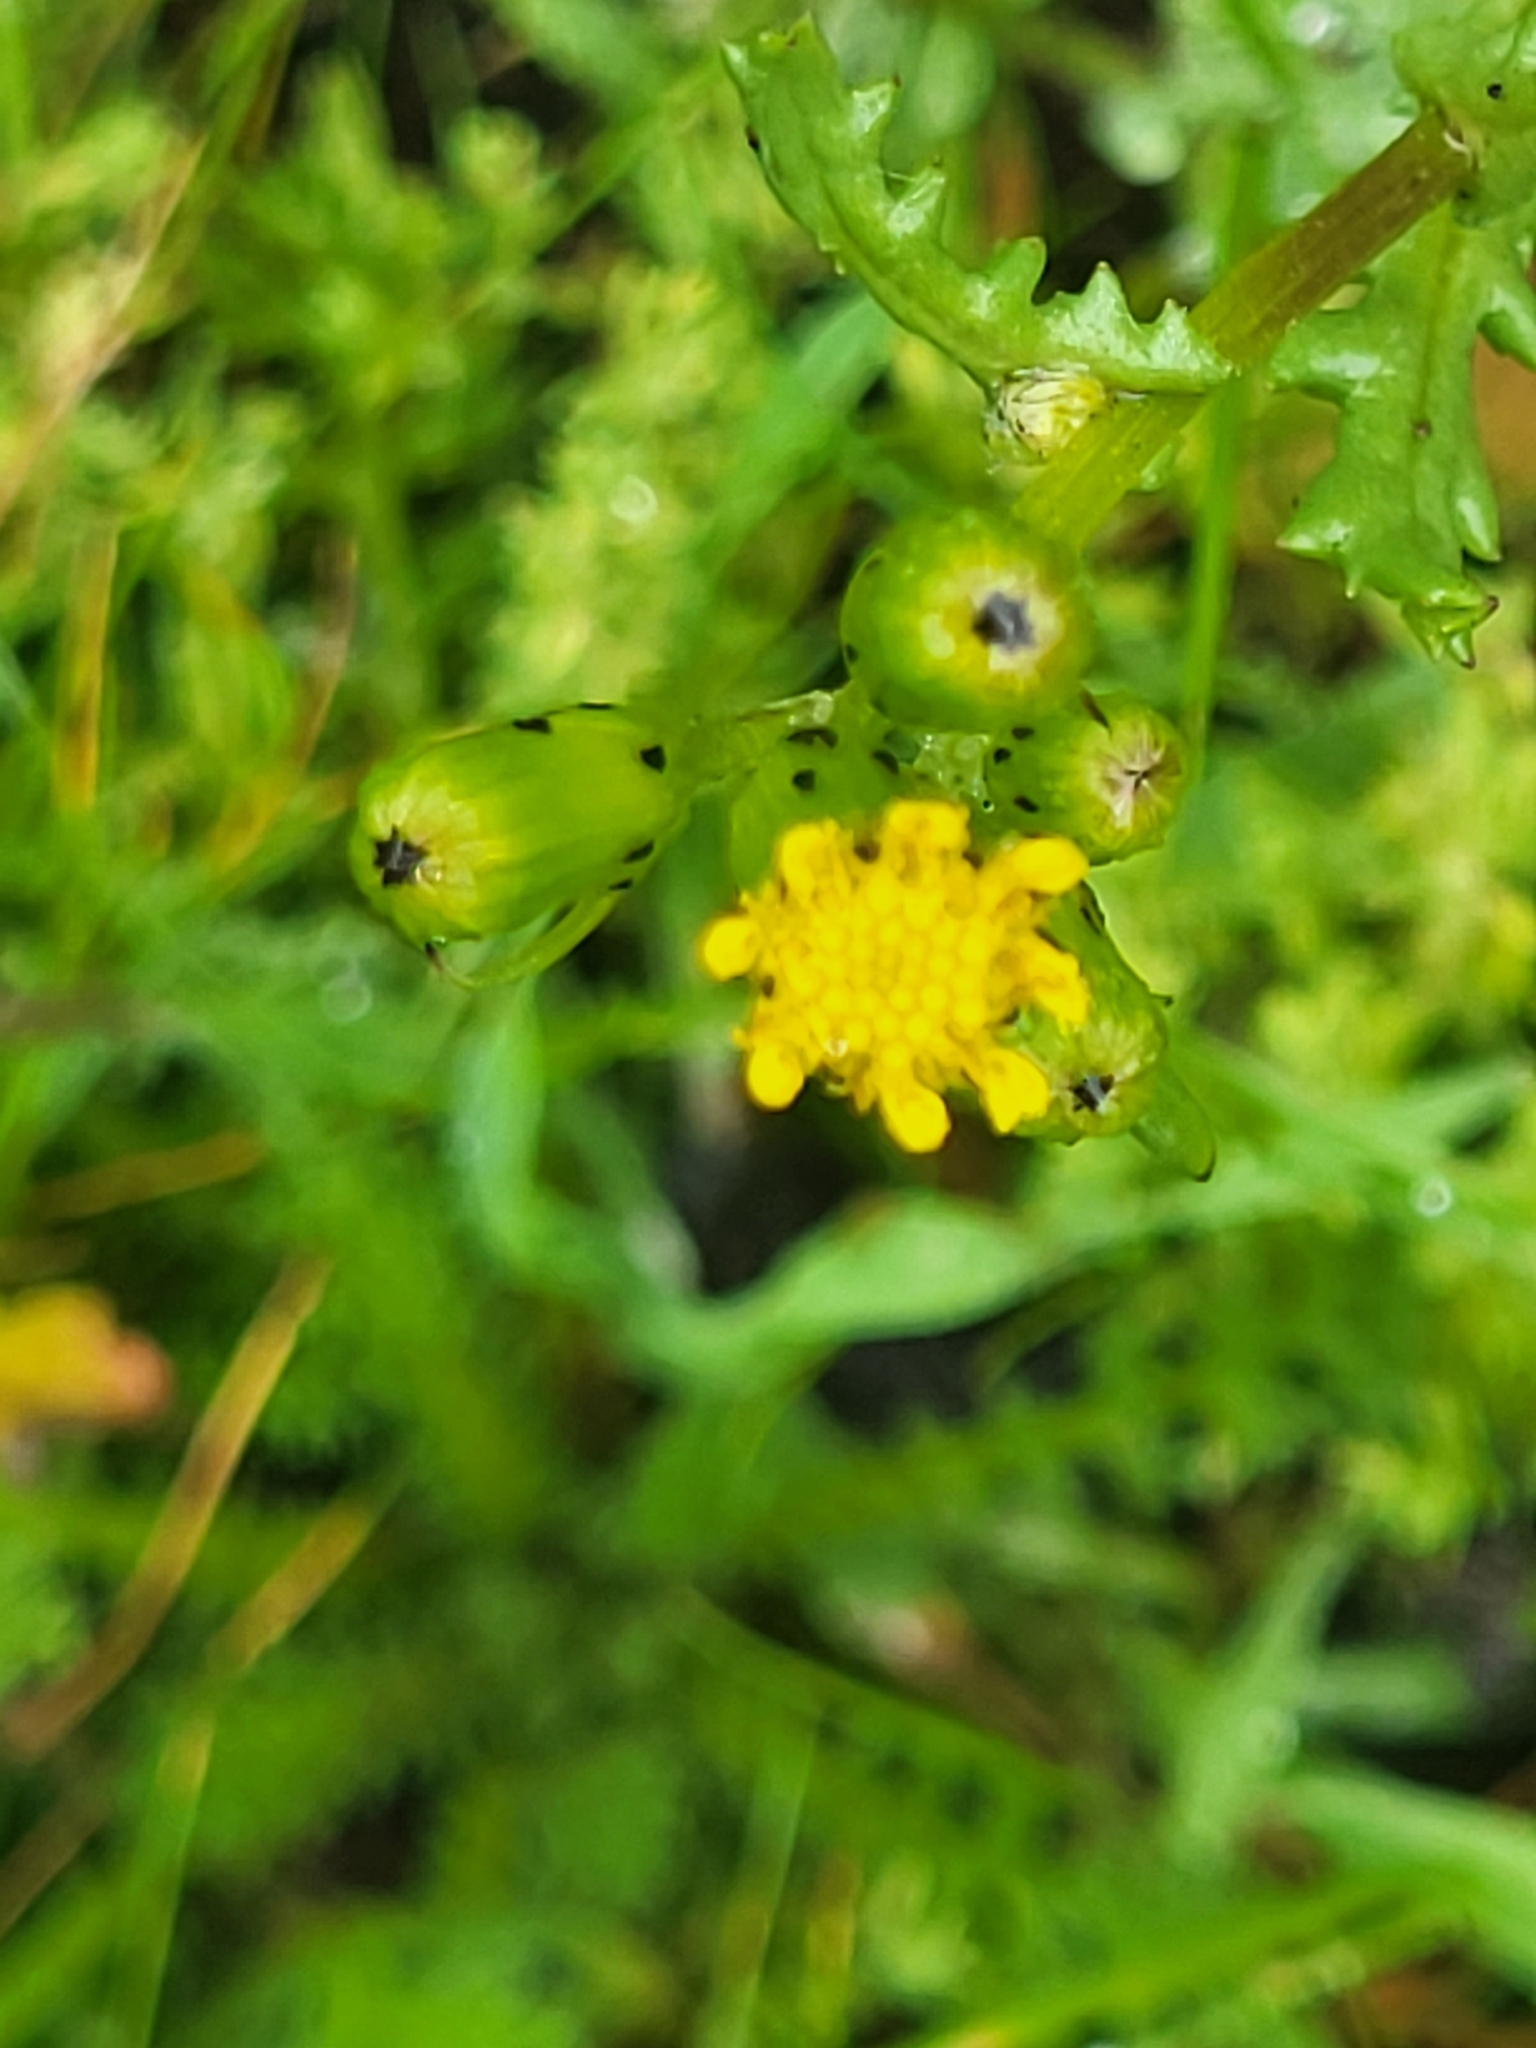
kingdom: Plantae
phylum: Tracheophyta
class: Magnoliopsida
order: Asterales
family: Asteraceae
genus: Senecio
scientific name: Senecio teneriffae
